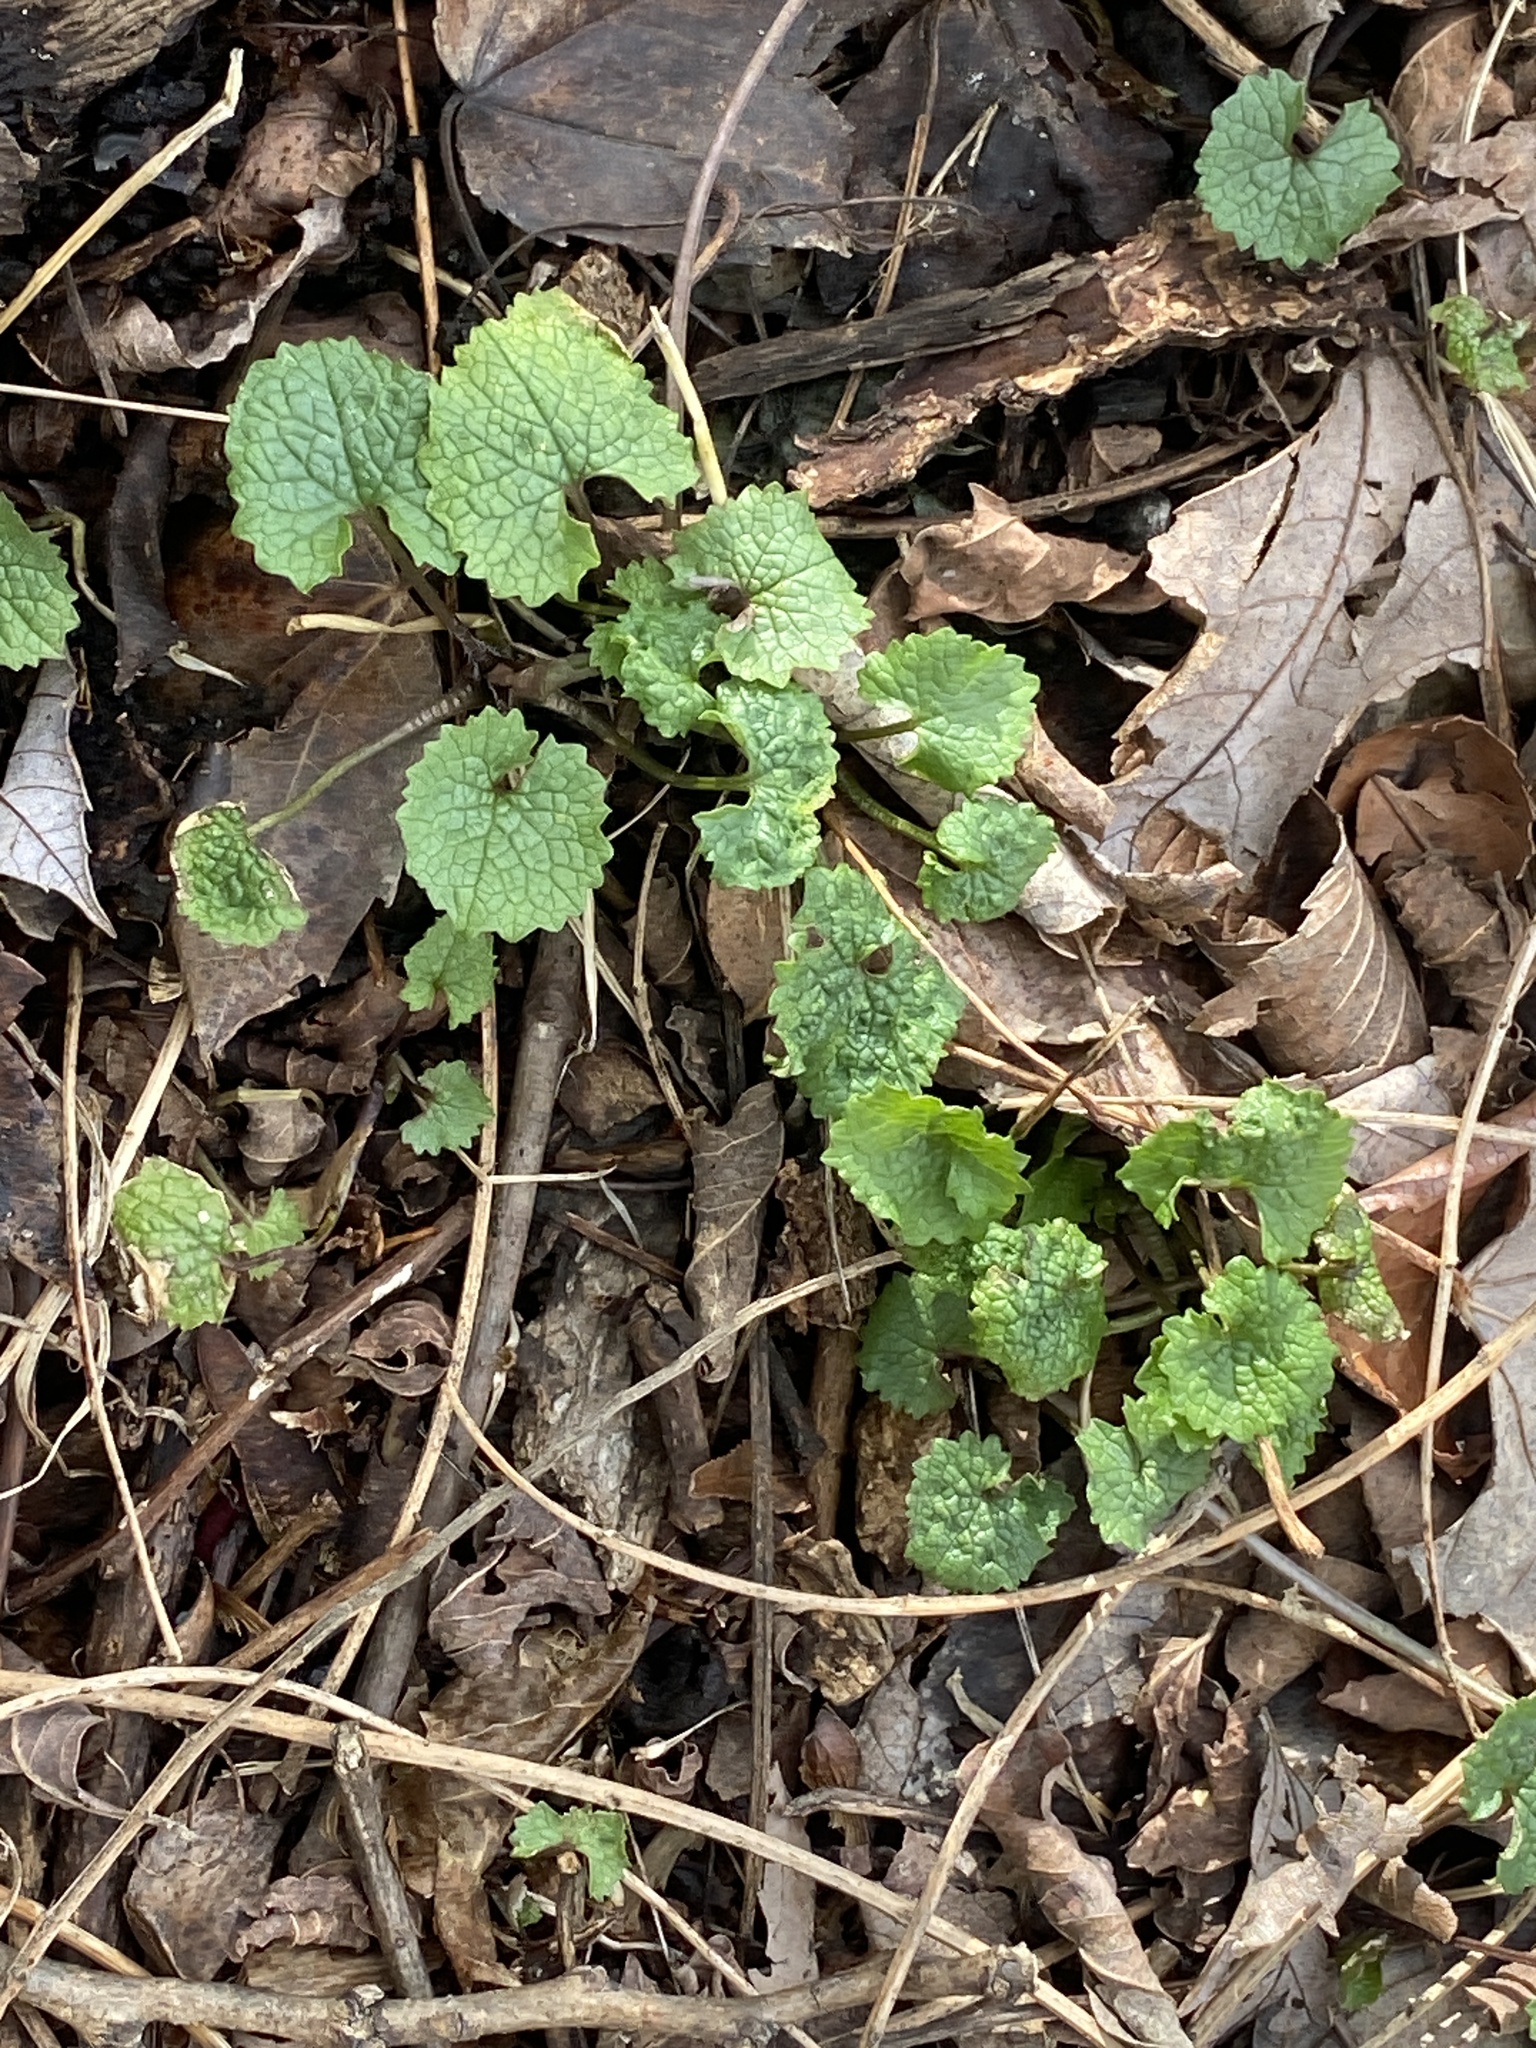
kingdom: Plantae
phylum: Tracheophyta
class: Magnoliopsida
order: Brassicales
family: Brassicaceae
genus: Alliaria
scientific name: Alliaria petiolata
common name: Garlic mustard
